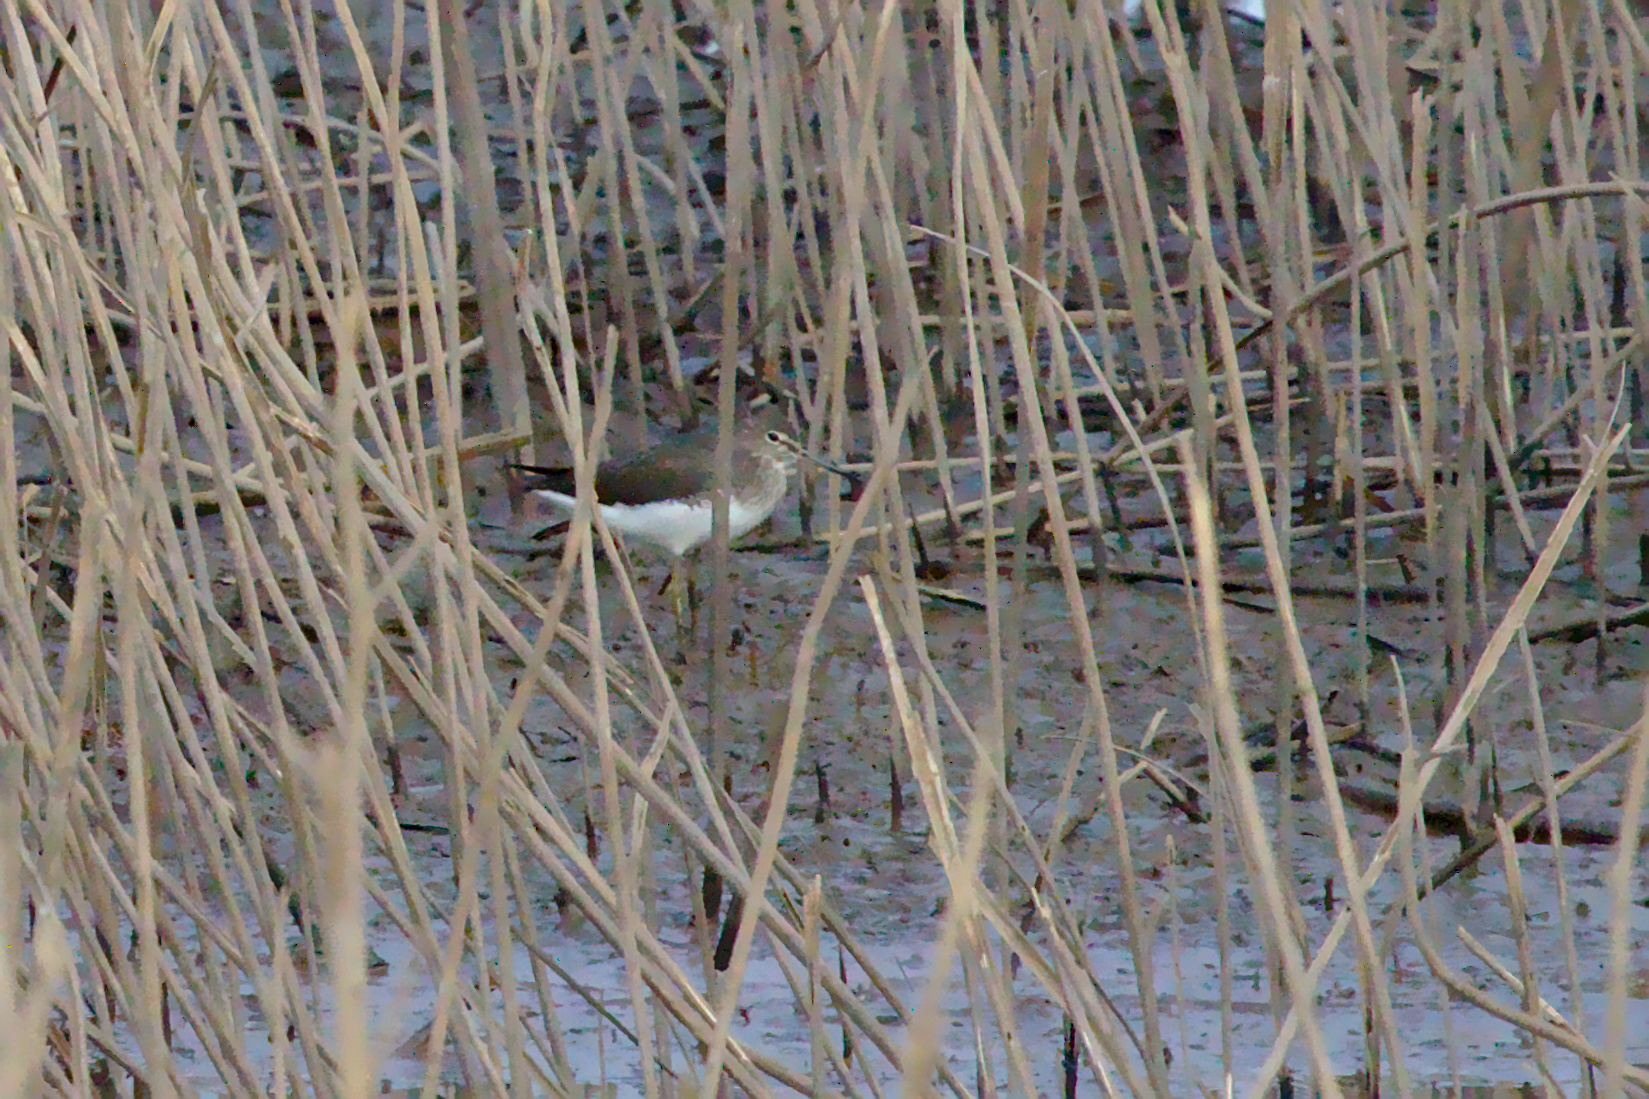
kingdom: Animalia
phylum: Chordata
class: Aves
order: Charadriiformes
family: Scolopacidae
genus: Tringa
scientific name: Tringa ochropus
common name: Green sandpiper
